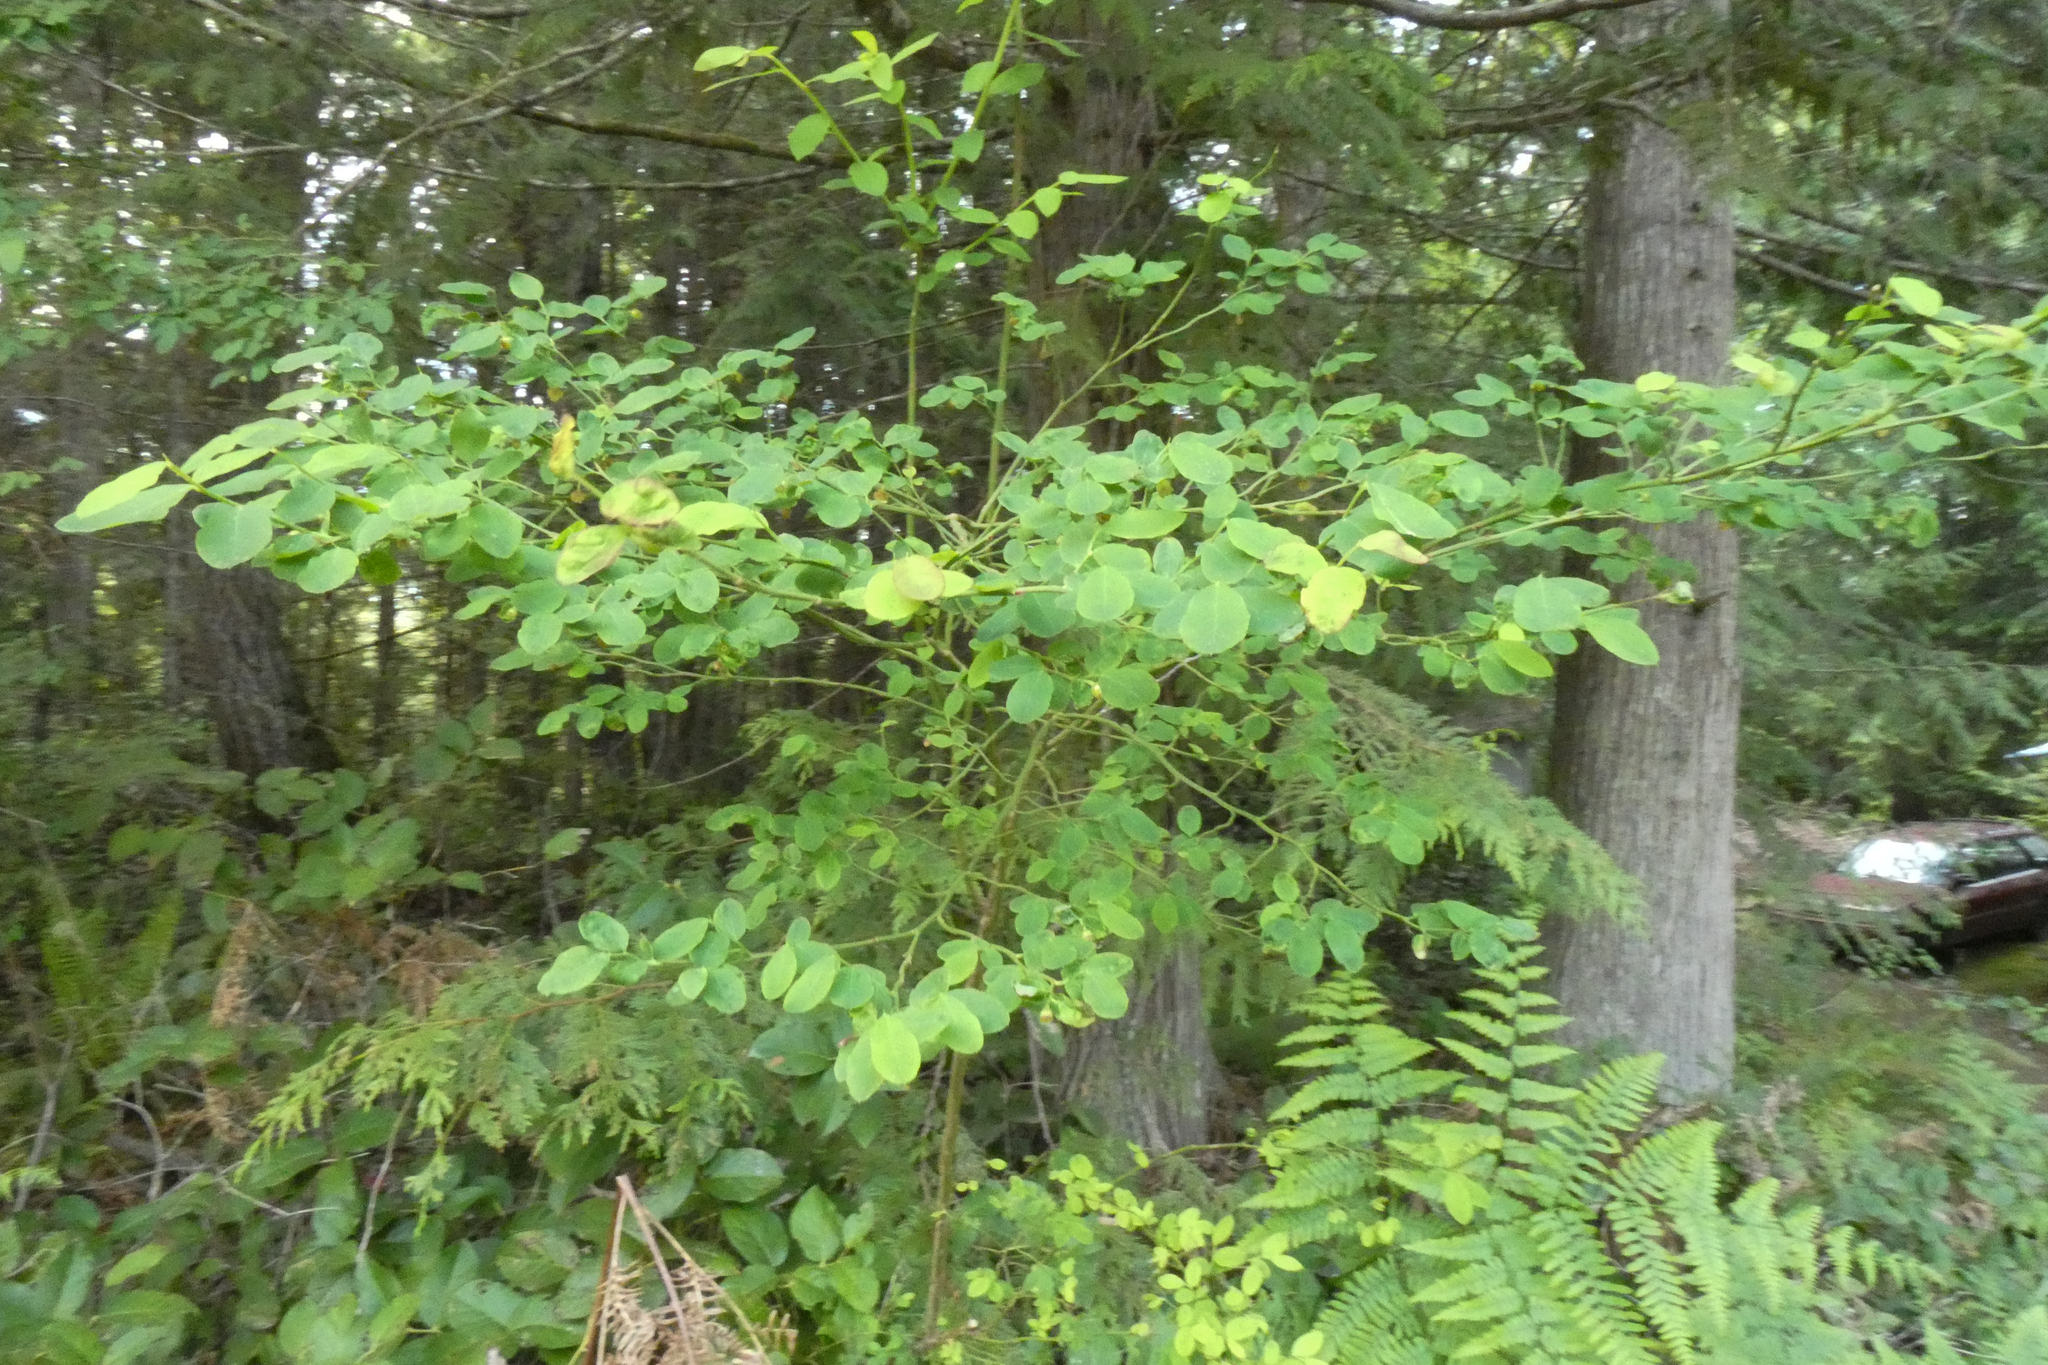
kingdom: Plantae
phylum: Tracheophyta
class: Magnoliopsida
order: Ericales
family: Ericaceae
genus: Vaccinium
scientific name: Vaccinium parvifolium
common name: Red-huckleberry
